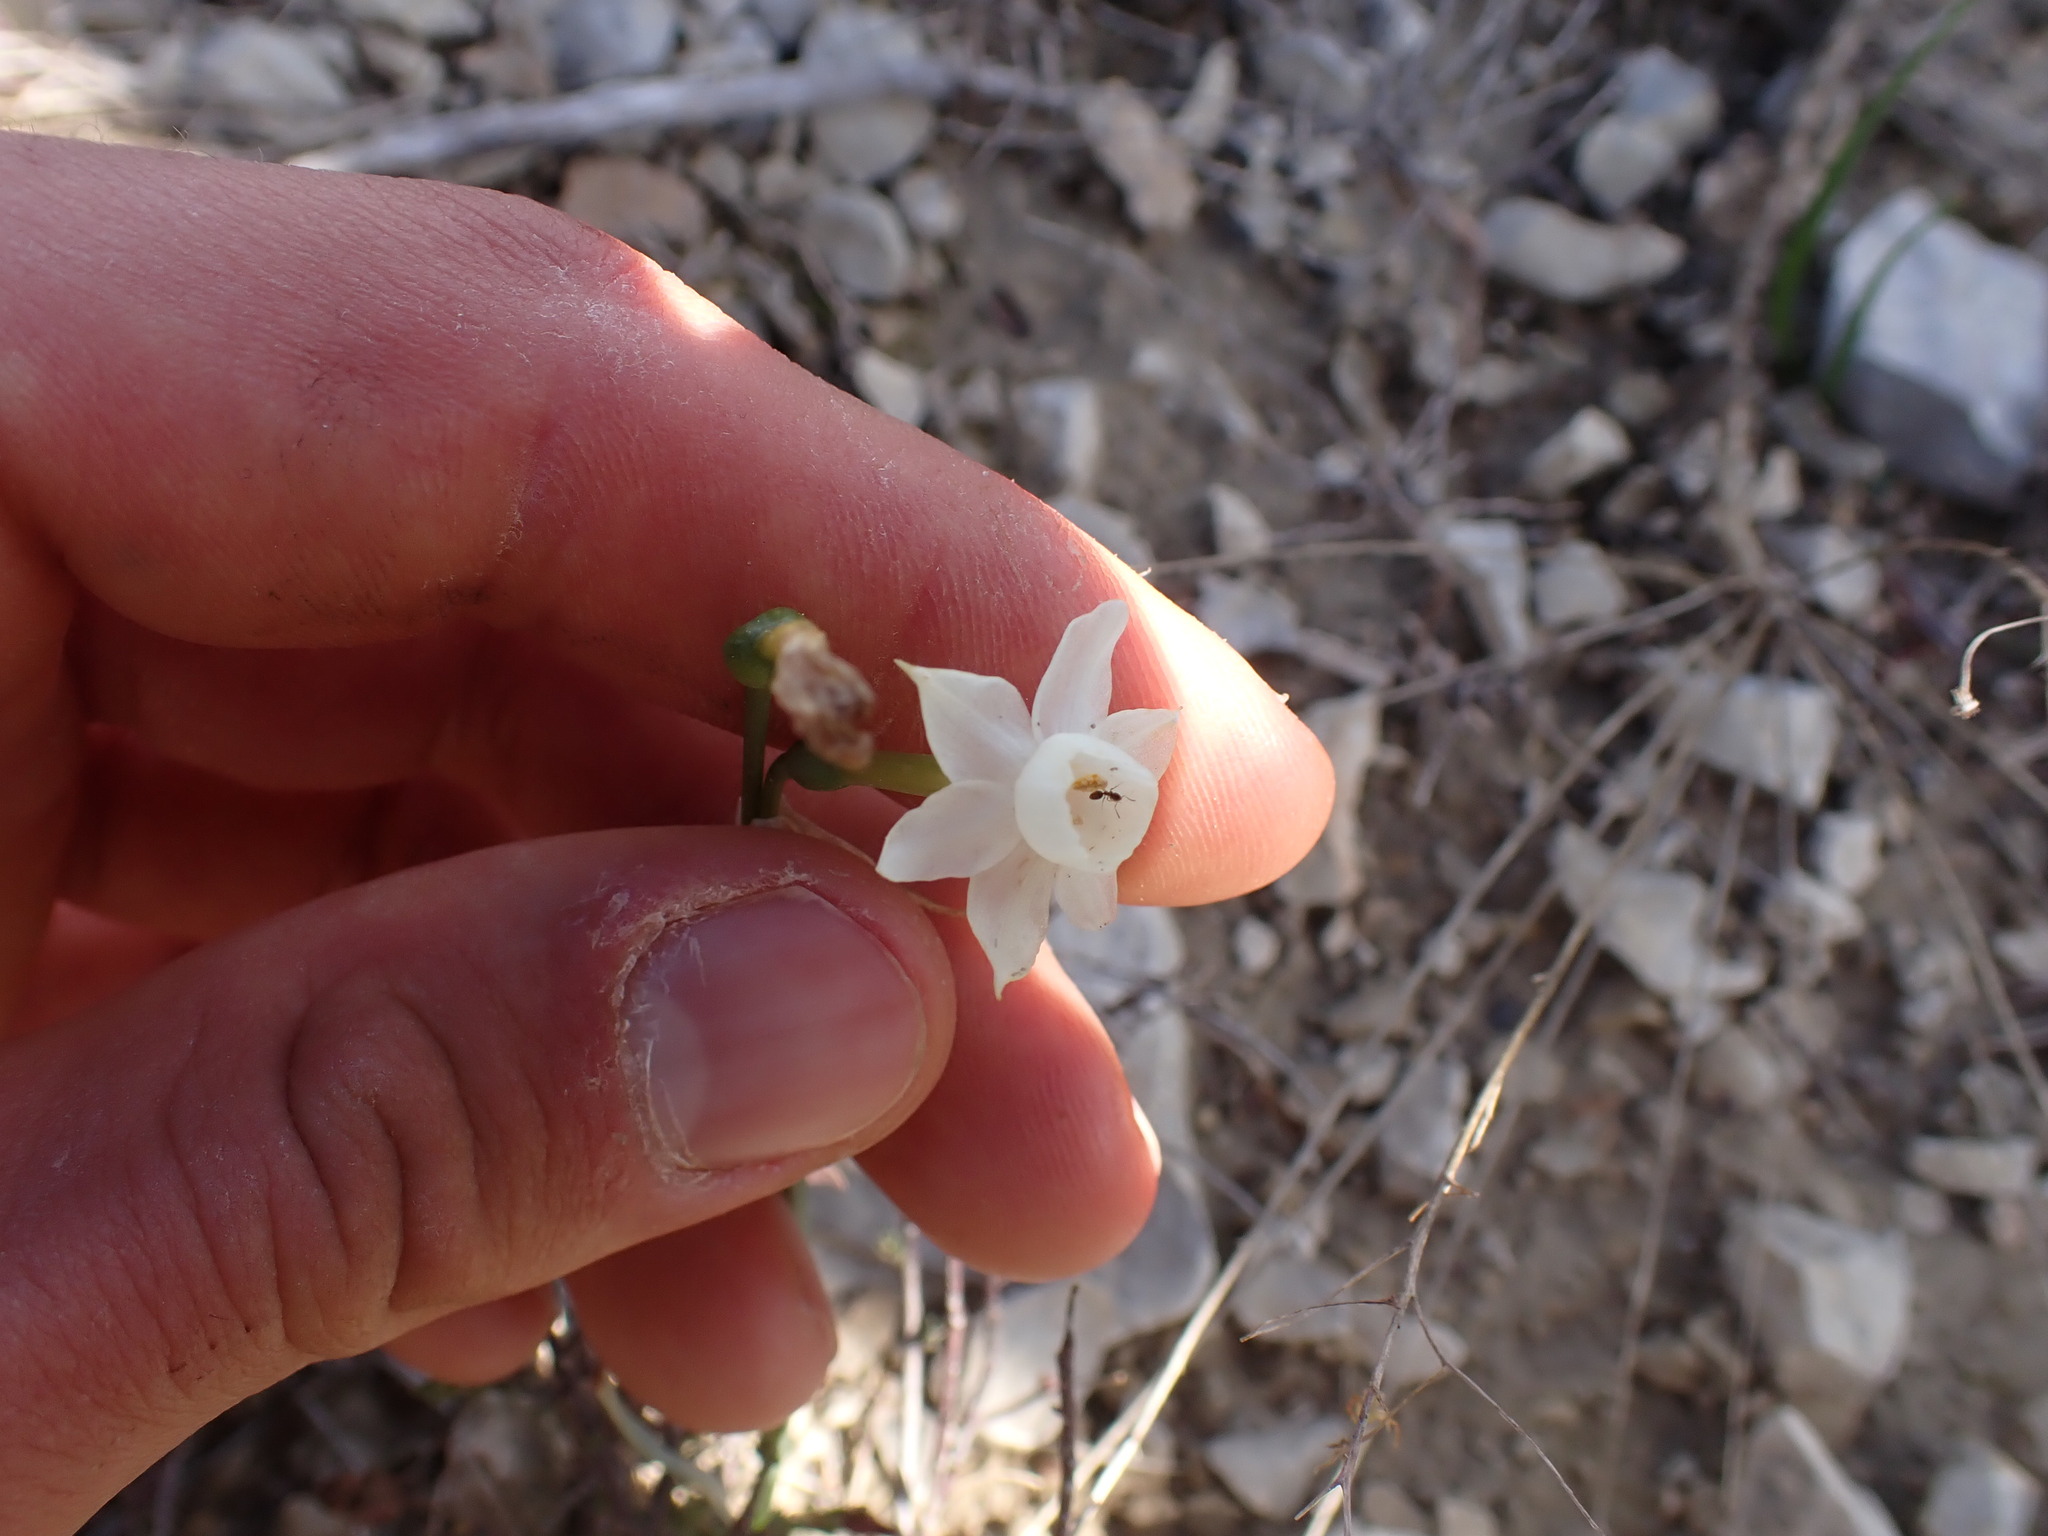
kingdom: Plantae
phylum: Tracheophyta
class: Liliopsida
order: Asparagales
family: Amaryllidaceae
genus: Narcissus
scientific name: Narcissus dubius
